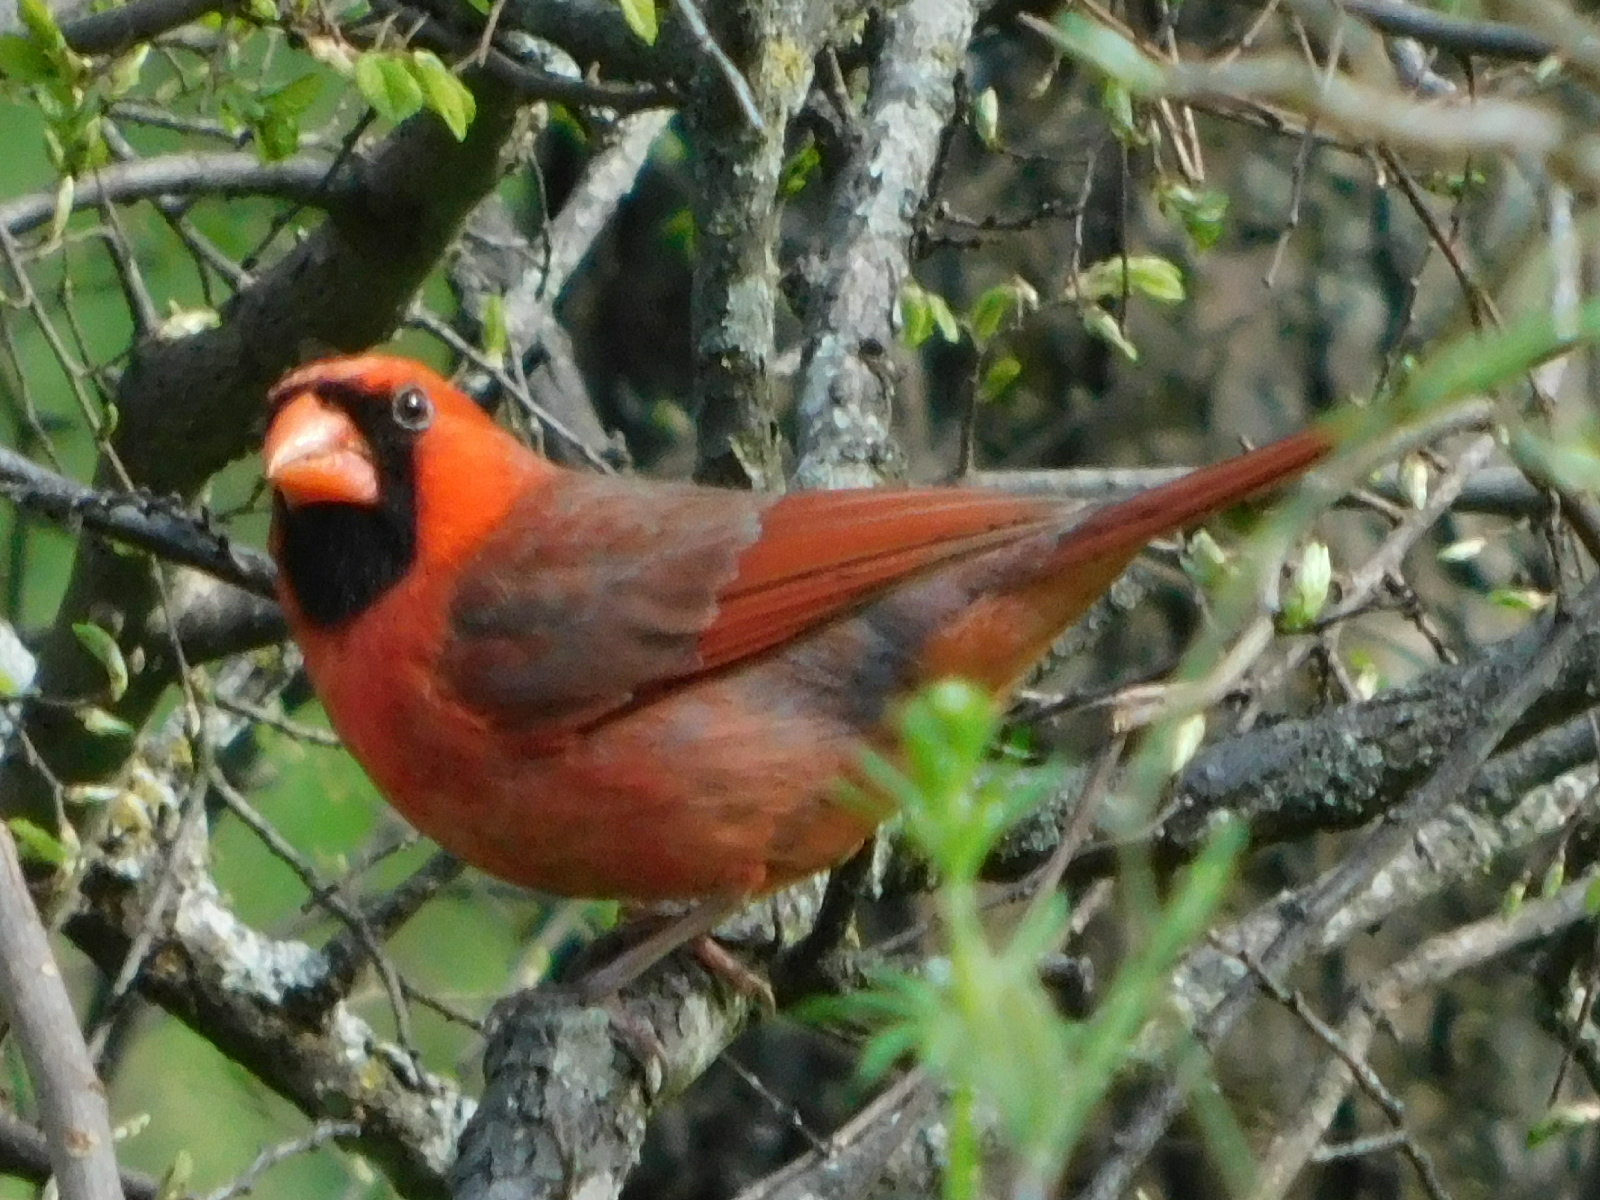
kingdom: Animalia
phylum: Chordata
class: Aves
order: Passeriformes
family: Cardinalidae
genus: Cardinalis
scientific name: Cardinalis cardinalis
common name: Northern cardinal
